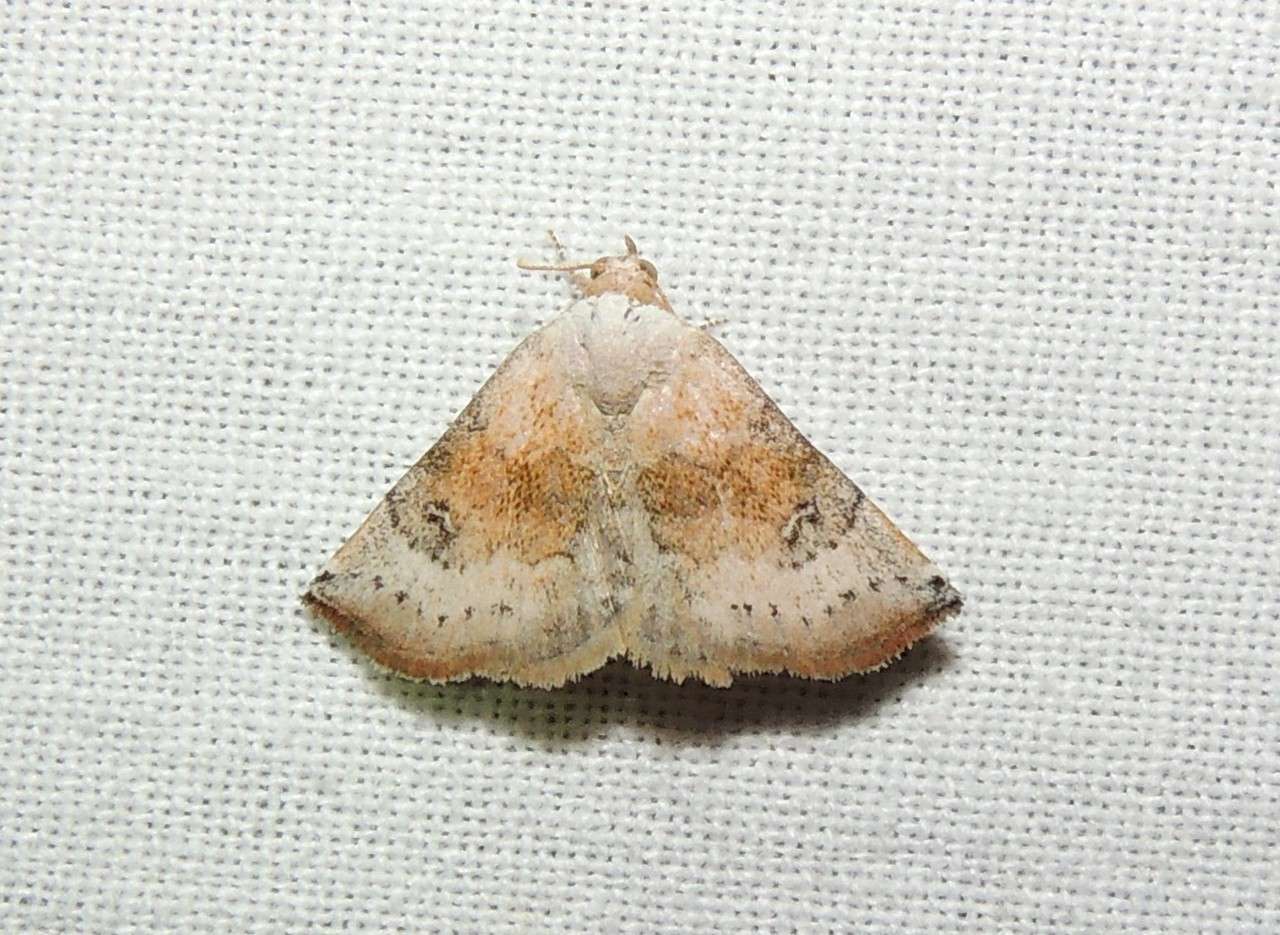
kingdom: Animalia
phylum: Arthropoda
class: Insecta
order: Lepidoptera
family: Noctuidae
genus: Mataeomera
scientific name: Mataeomera mesotaenia
